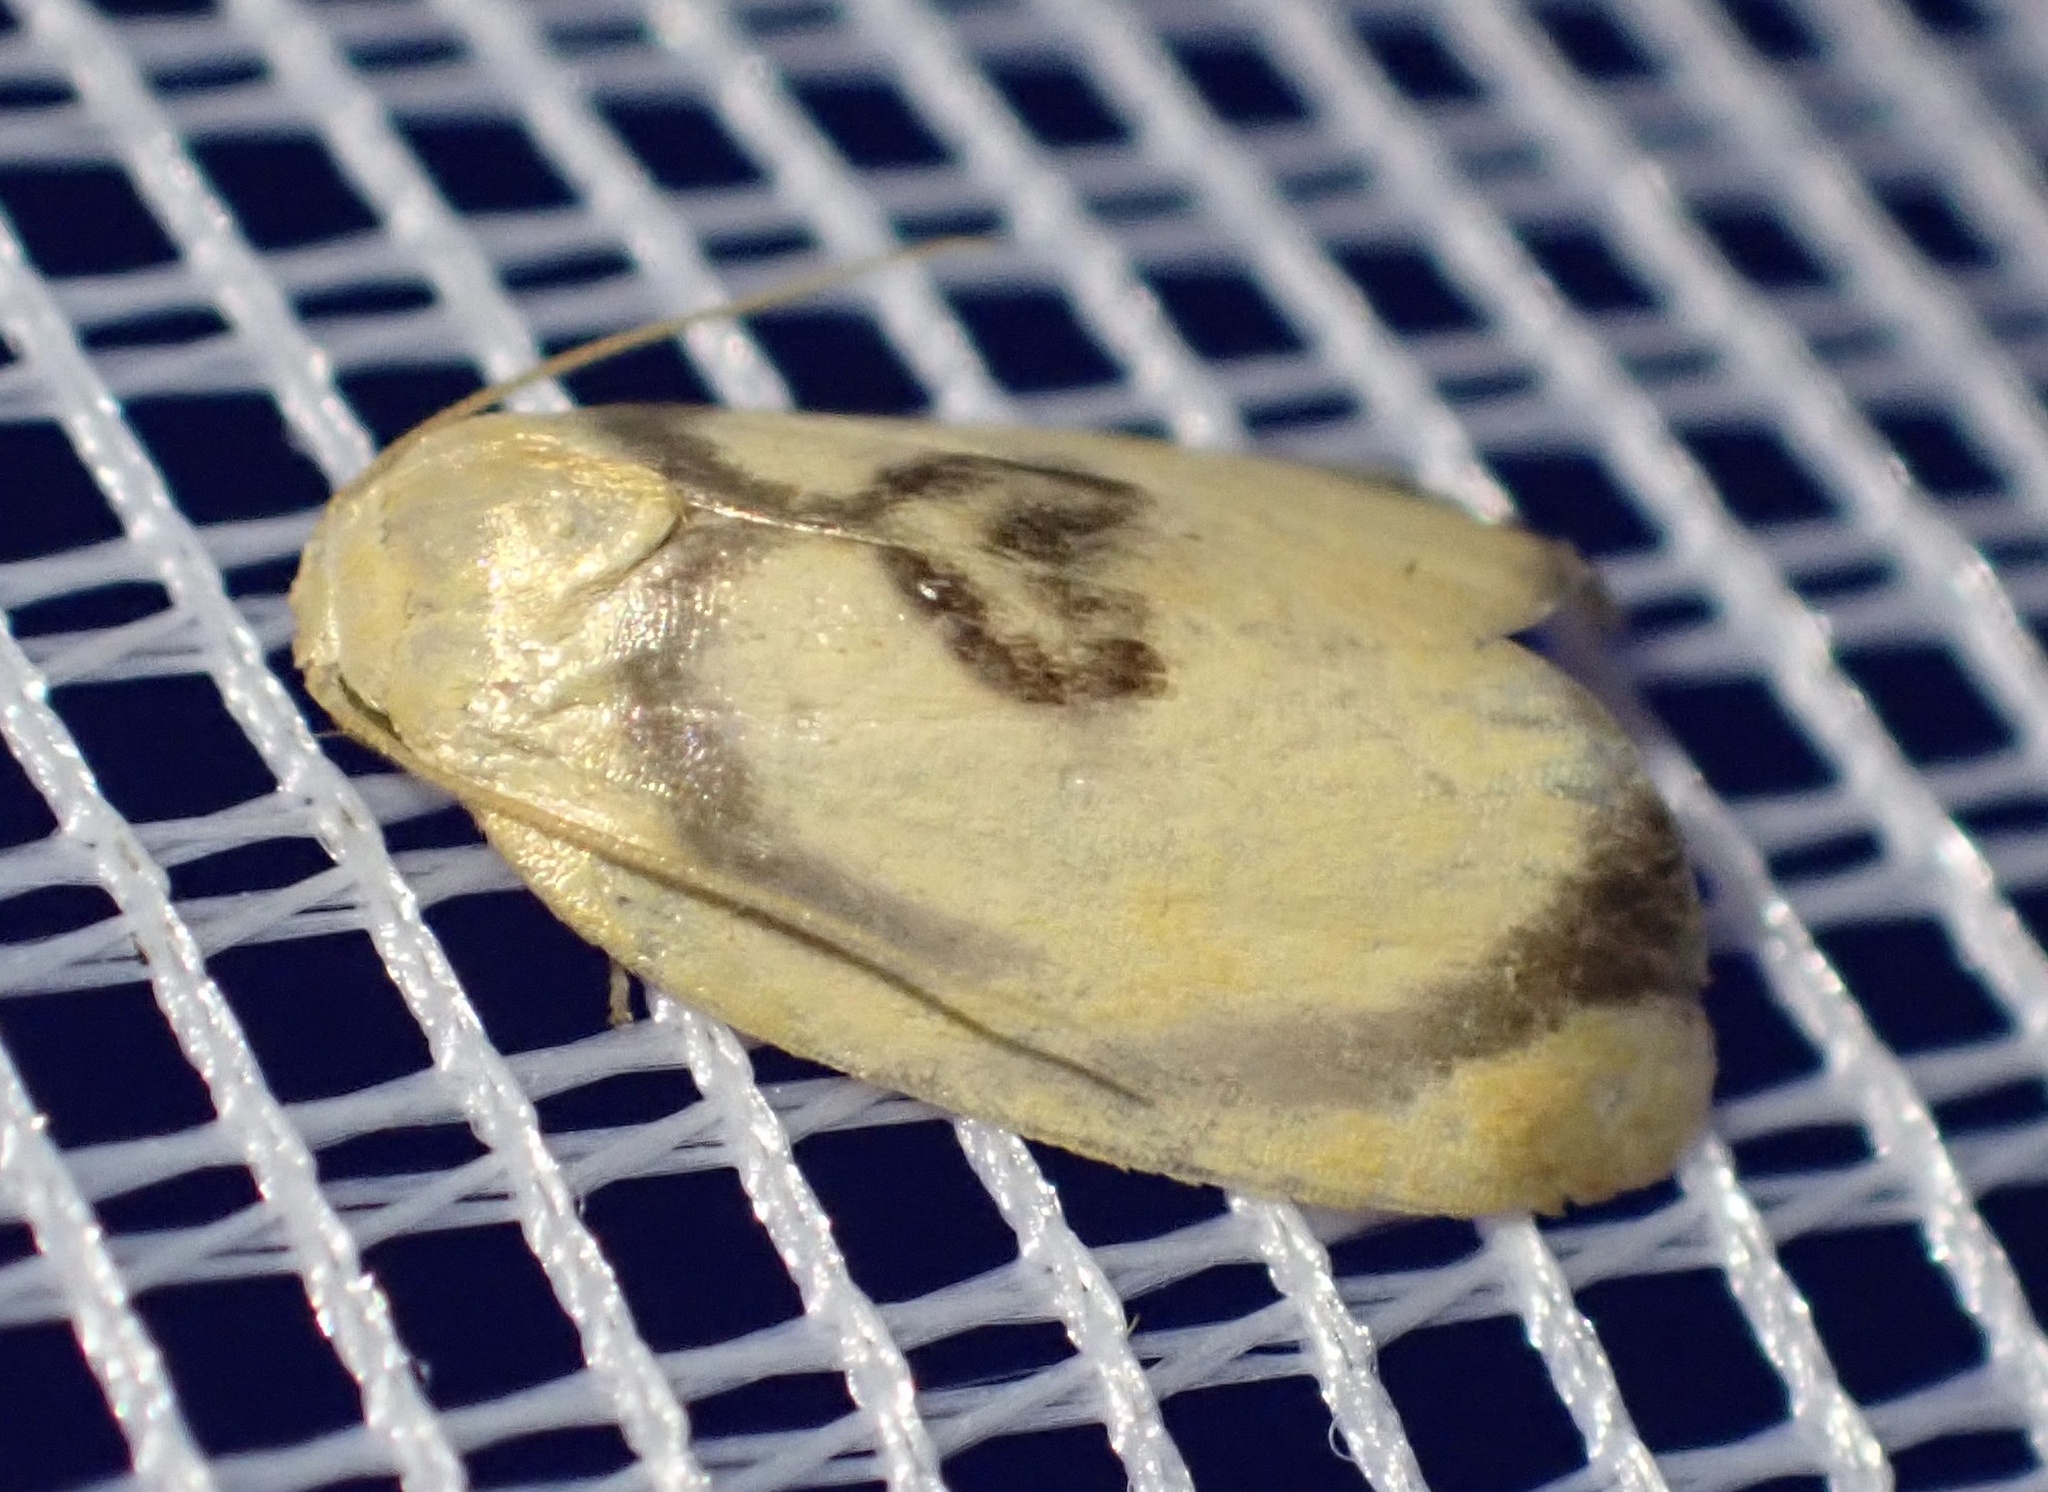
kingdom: Animalia
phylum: Arthropoda
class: Insecta
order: Lepidoptera
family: Erebidae
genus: Trischalis
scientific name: Trischalis subaurana
